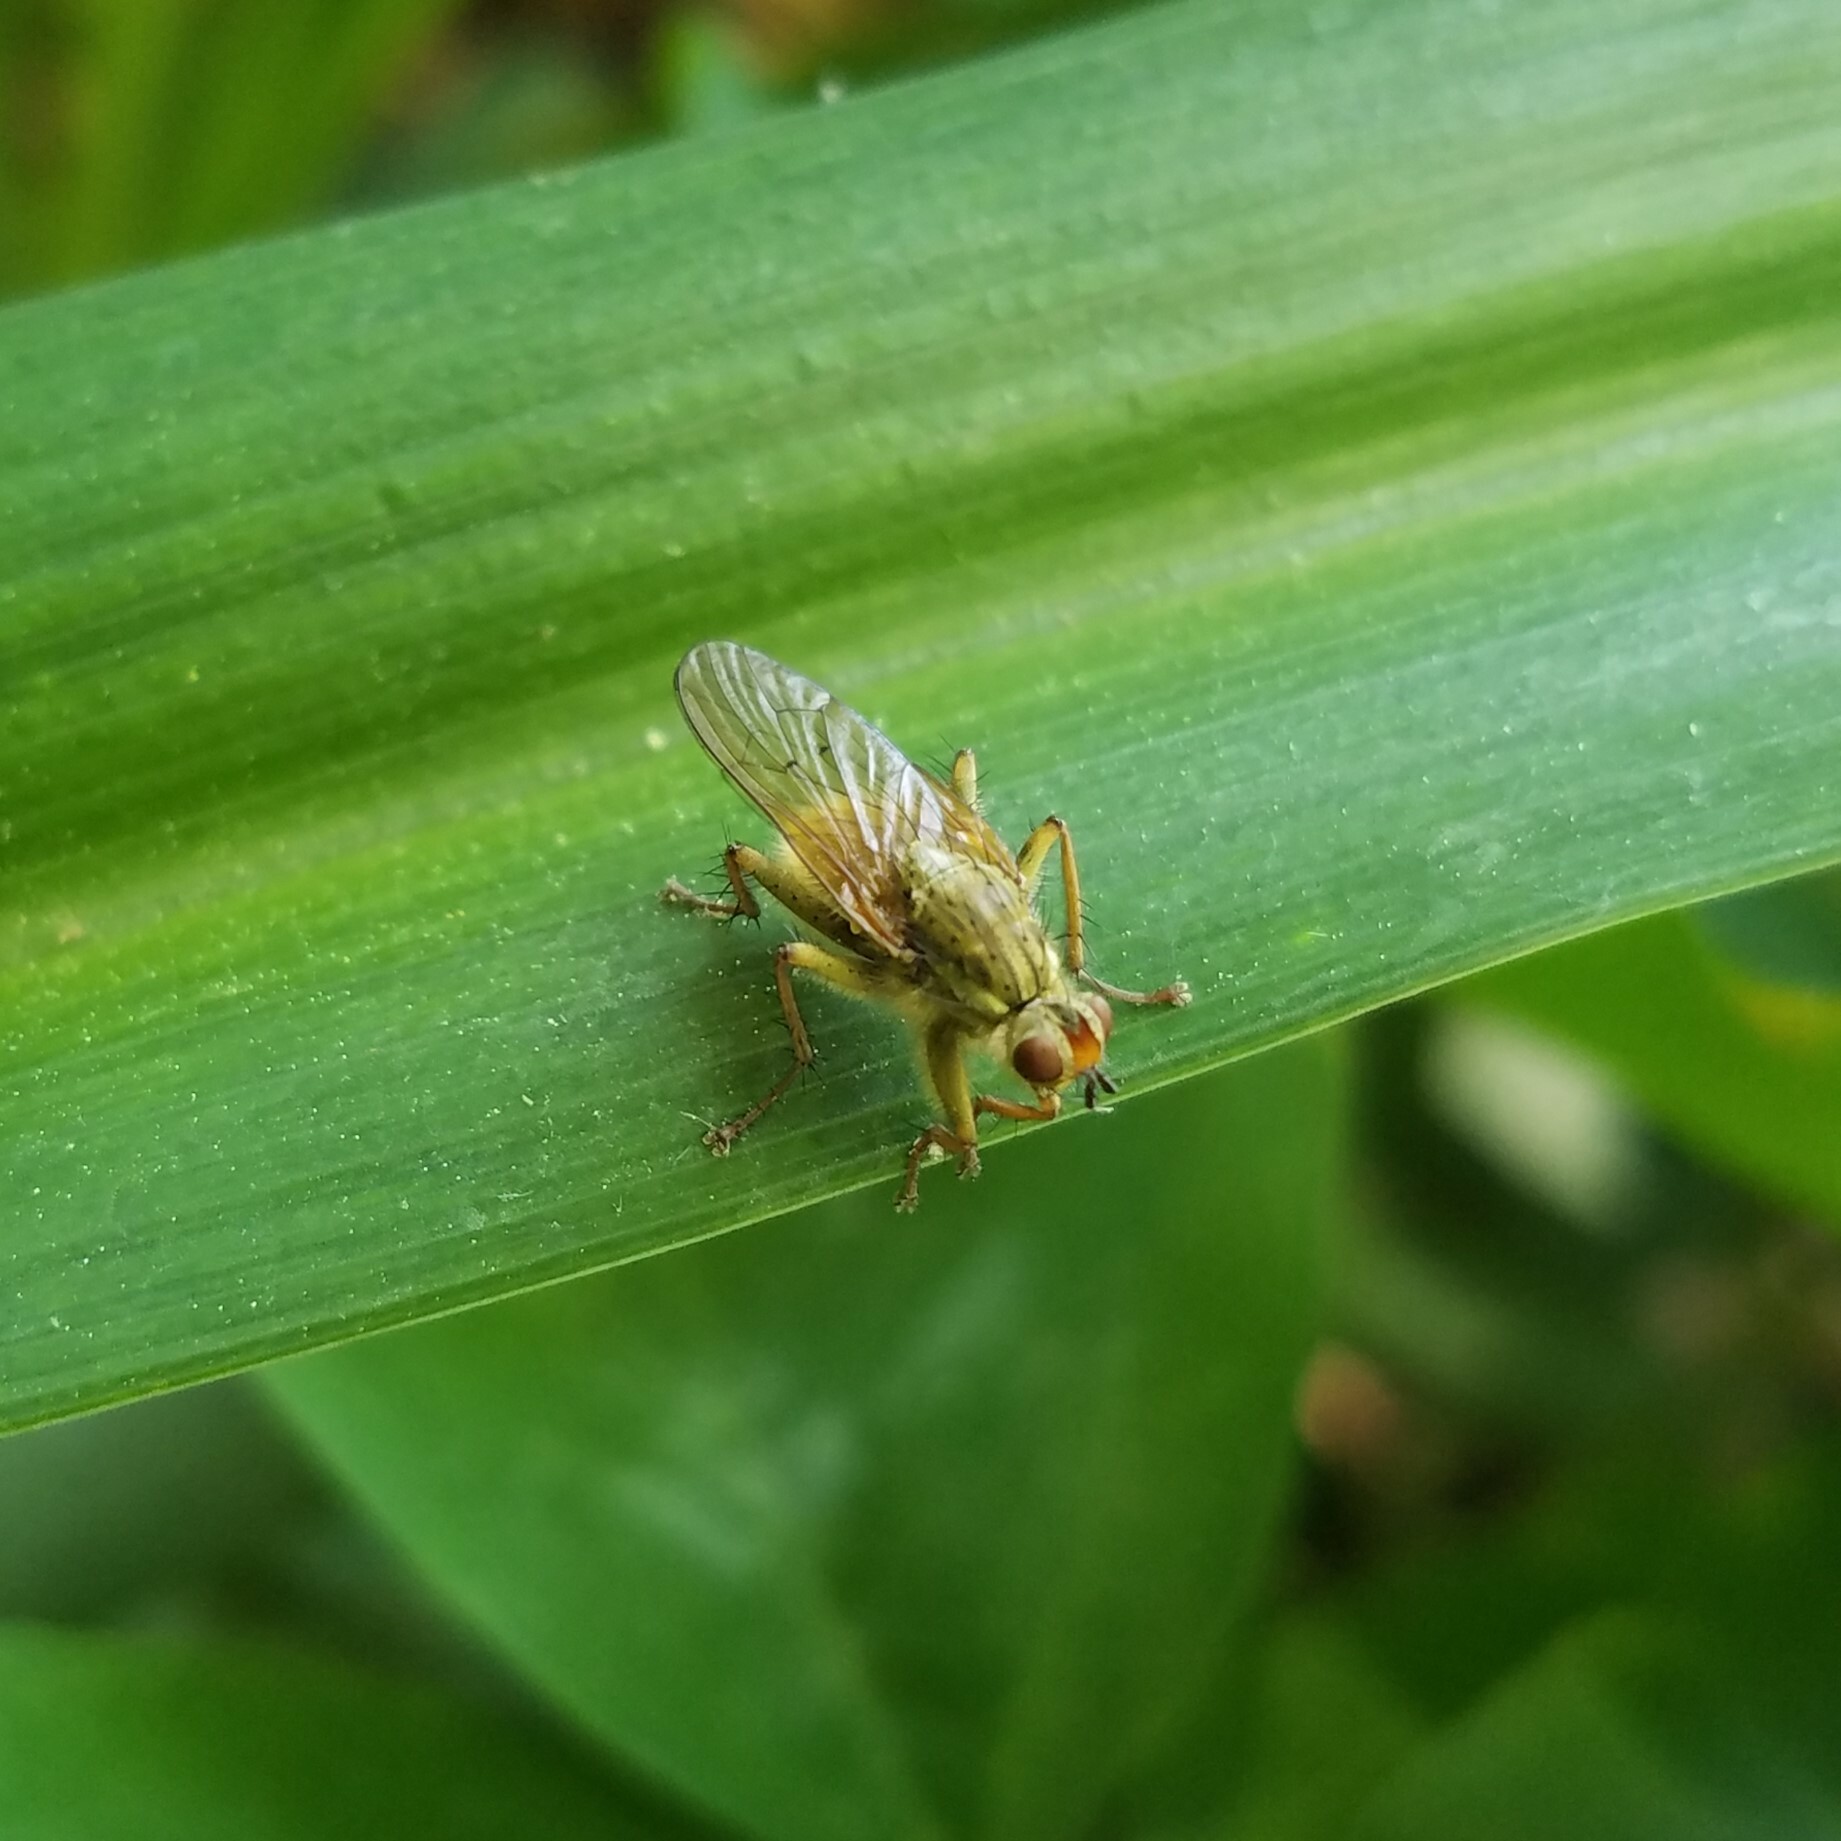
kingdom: Animalia
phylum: Arthropoda
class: Insecta
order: Diptera
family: Scathophagidae
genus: Scathophaga
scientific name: Scathophaga stercoraria
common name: Yellow dung fly
